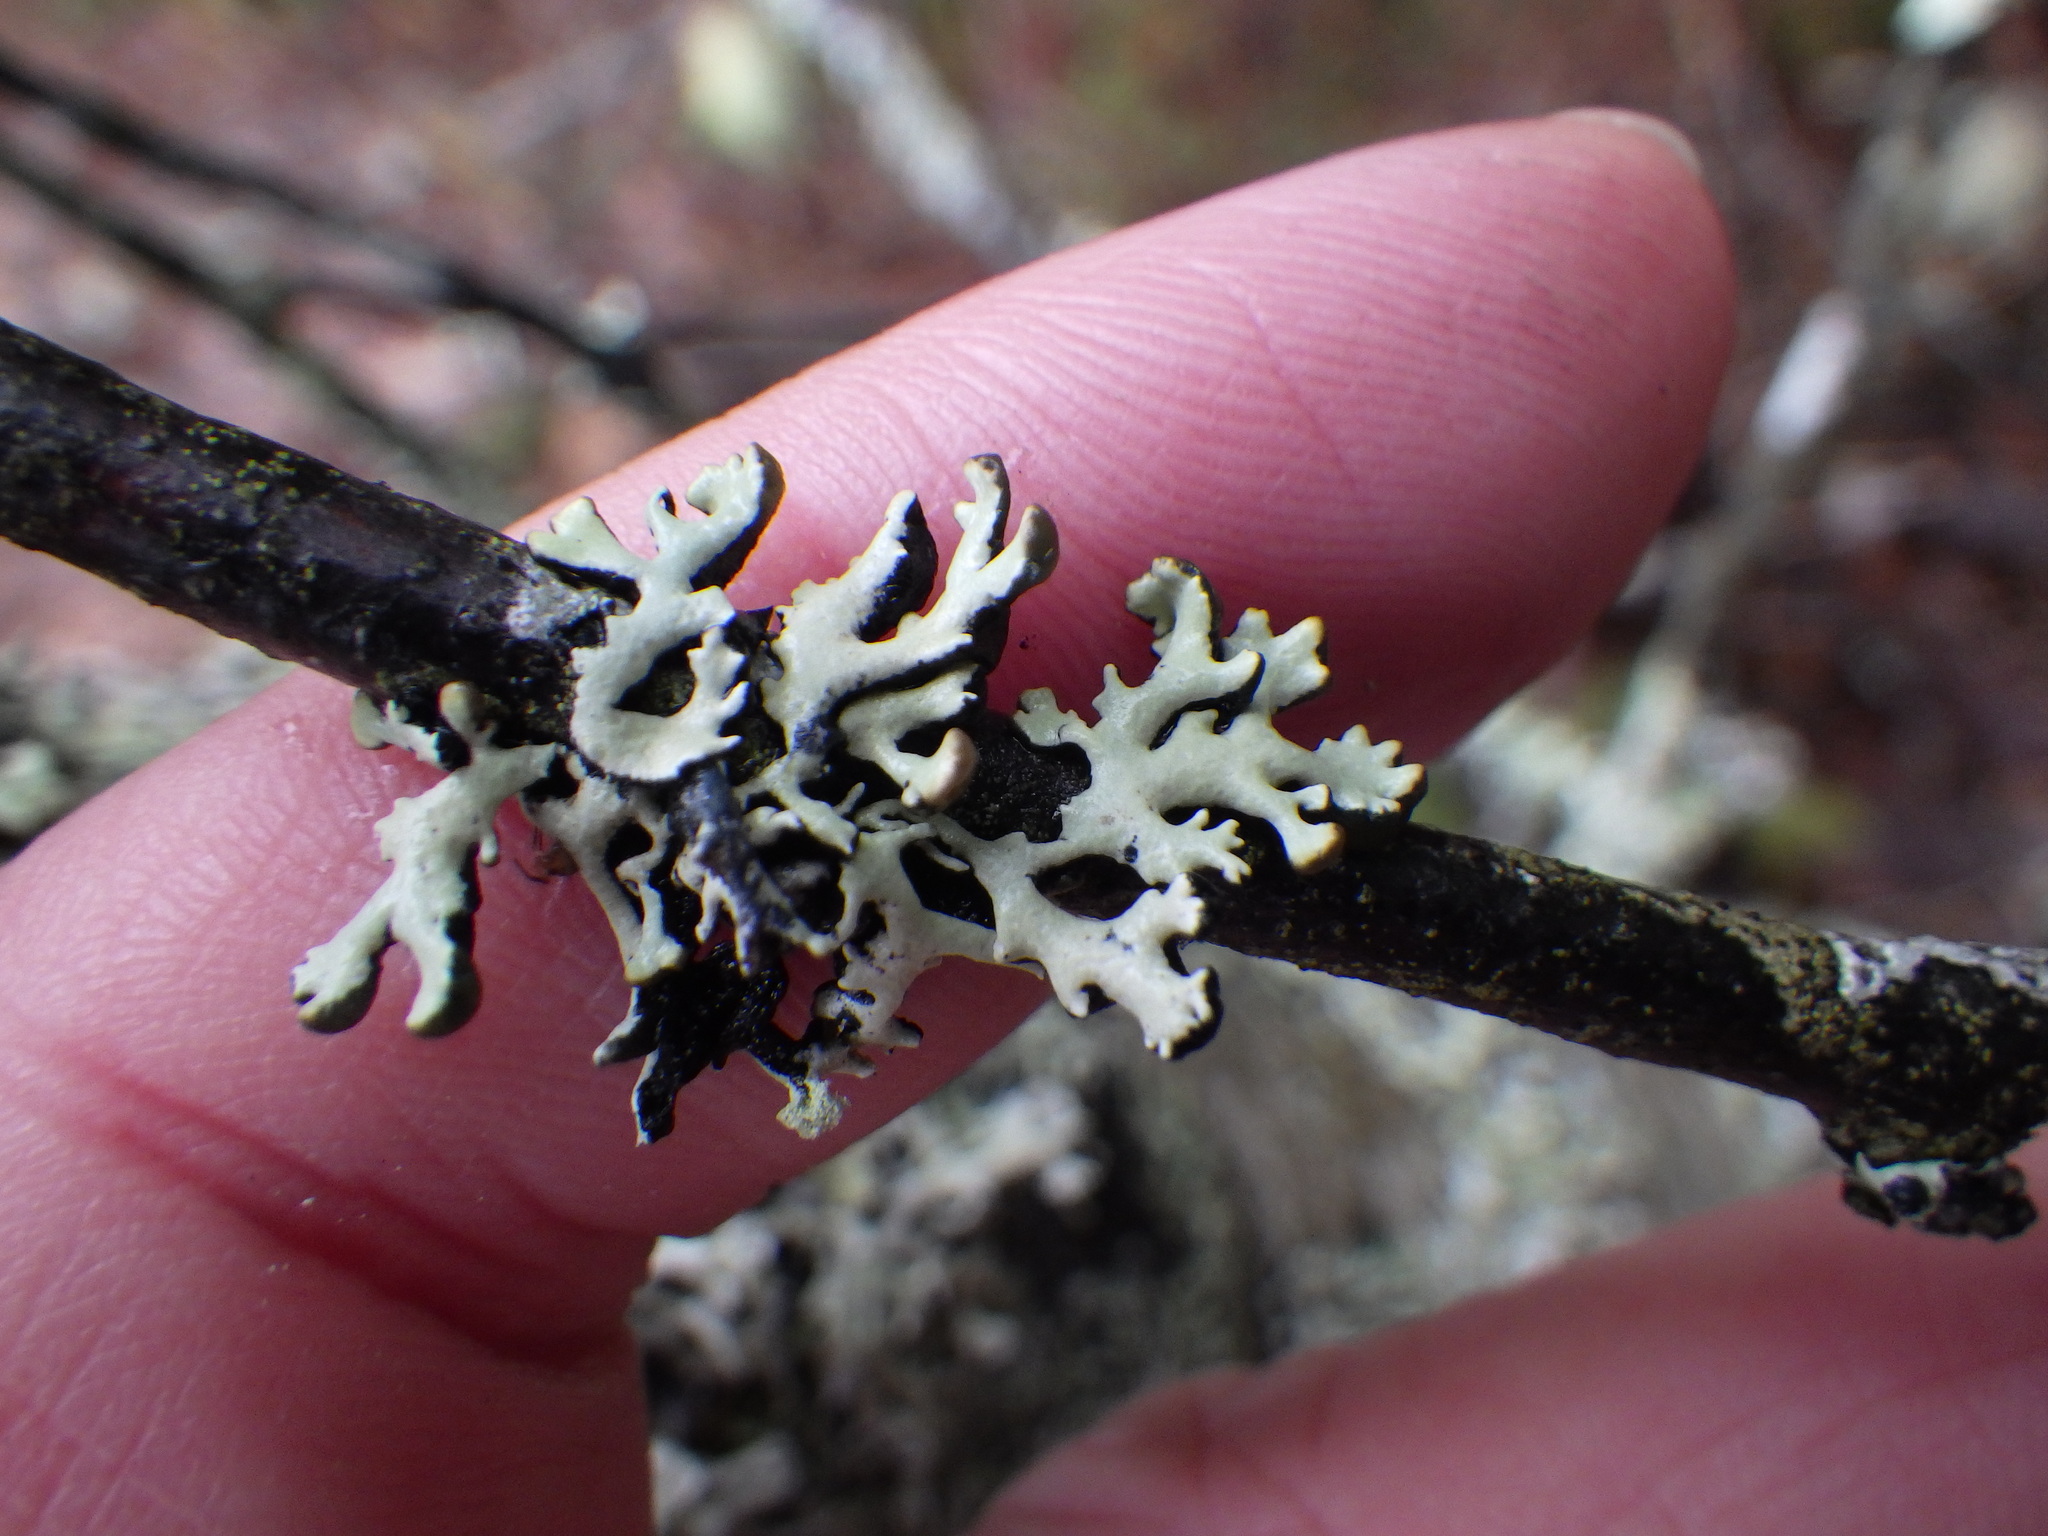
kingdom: Fungi
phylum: Ascomycota
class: Lecanoromycetes
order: Lecanorales
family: Parmeliaceae
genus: Hypogymnia
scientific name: Hypogymnia physodes
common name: Dark crottle
